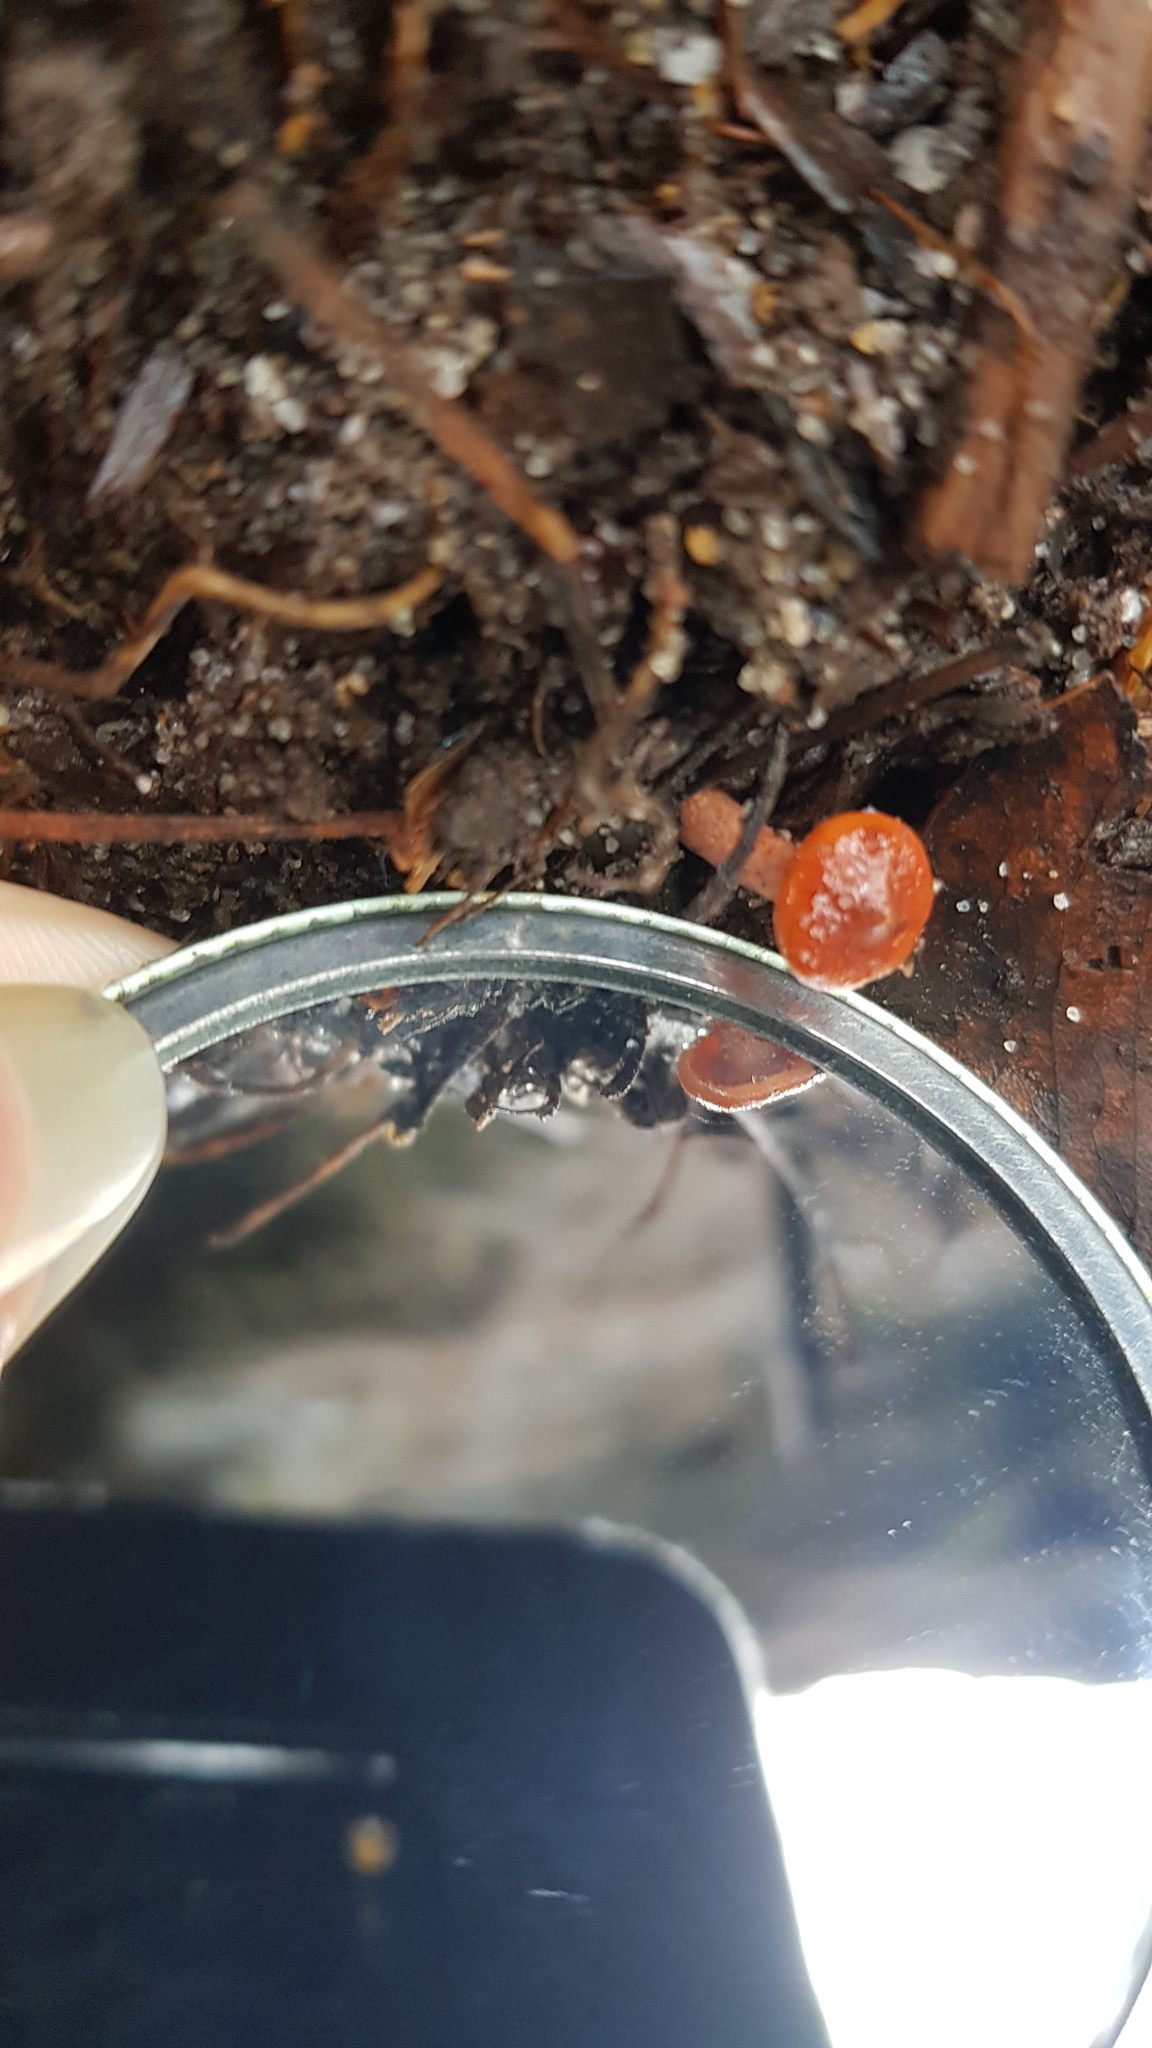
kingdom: Fungi
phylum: Basidiomycota
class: Agaricomycetes
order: Russulales
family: Russulaceae
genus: Lactarius
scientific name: Lactarius eucalypti
